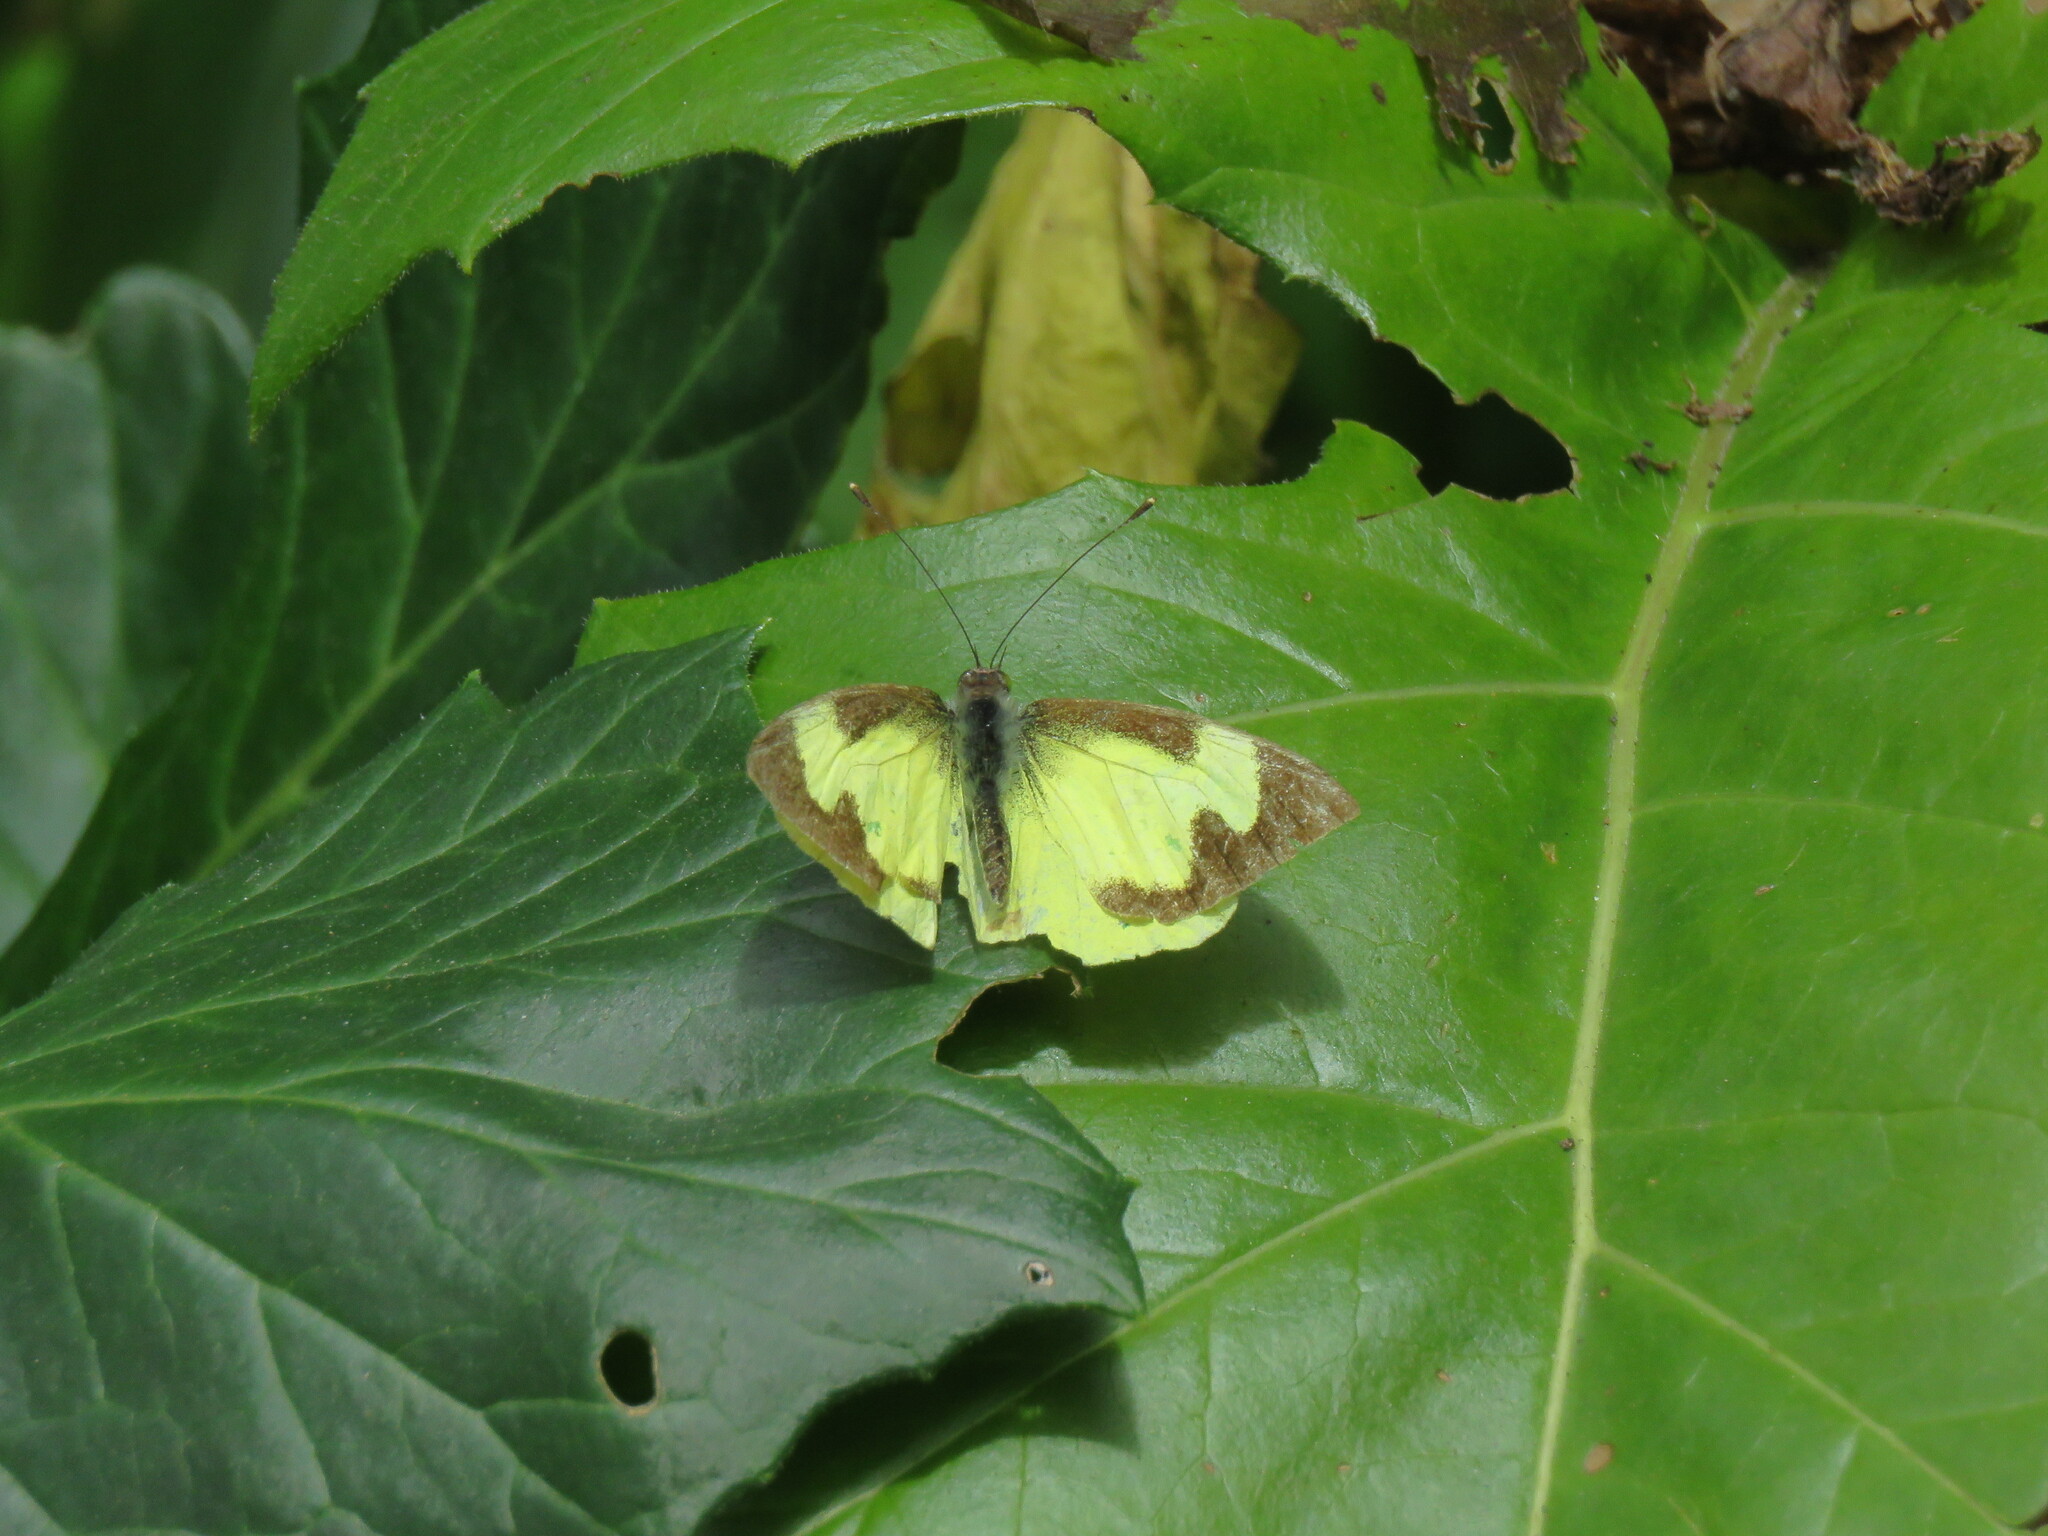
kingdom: Animalia
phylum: Arthropoda
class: Insecta
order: Lepidoptera
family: Pieridae
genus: Leptophobia
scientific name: Leptophobia eleone
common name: Silky wanderer
